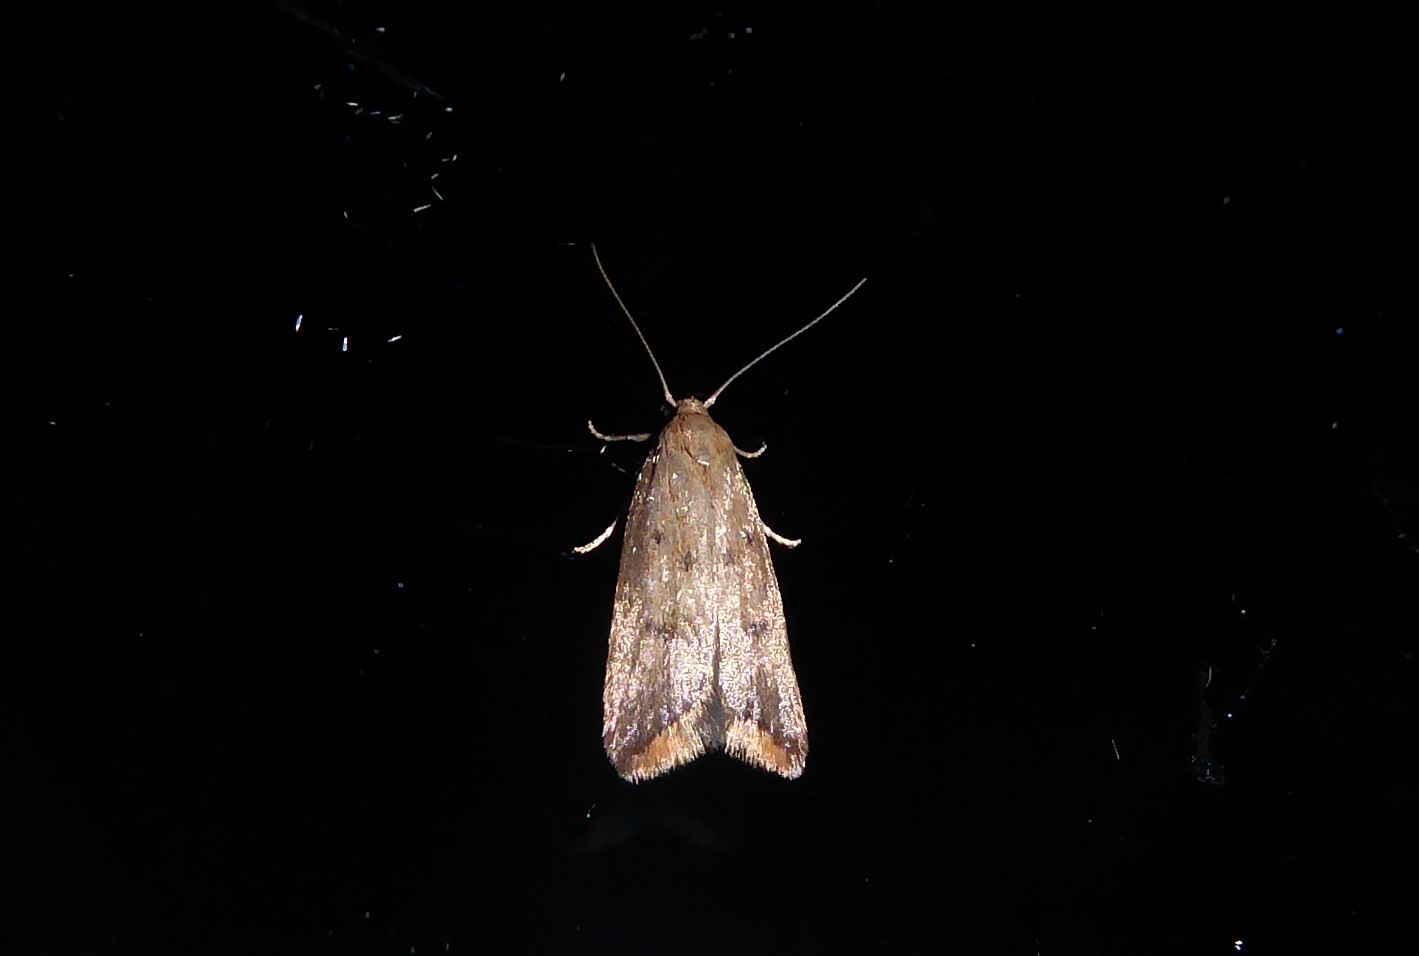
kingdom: Animalia
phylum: Arthropoda
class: Insecta
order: Lepidoptera
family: Oecophoridae
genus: Tachystola
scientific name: Tachystola acroxantha
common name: Ruddy streak
